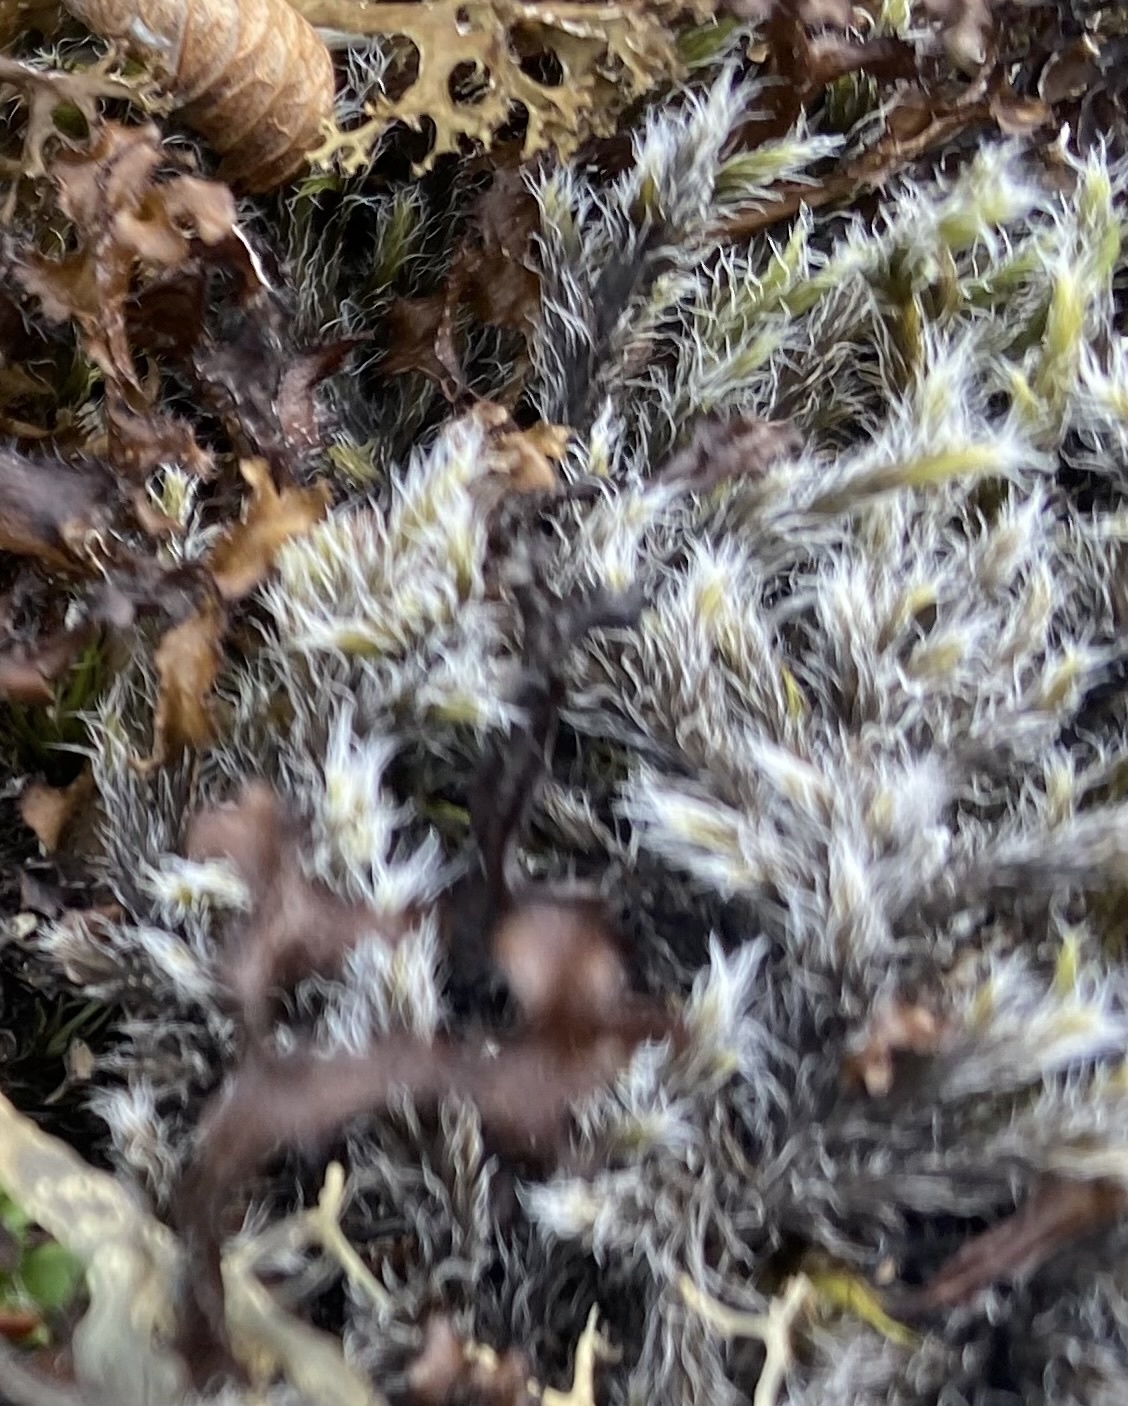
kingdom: Plantae
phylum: Bryophyta
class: Bryopsida
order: Grimmiales
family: Grimmiaceae
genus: Racomitrium
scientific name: Racomitrium lanuginosum
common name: Hoary rock moss
